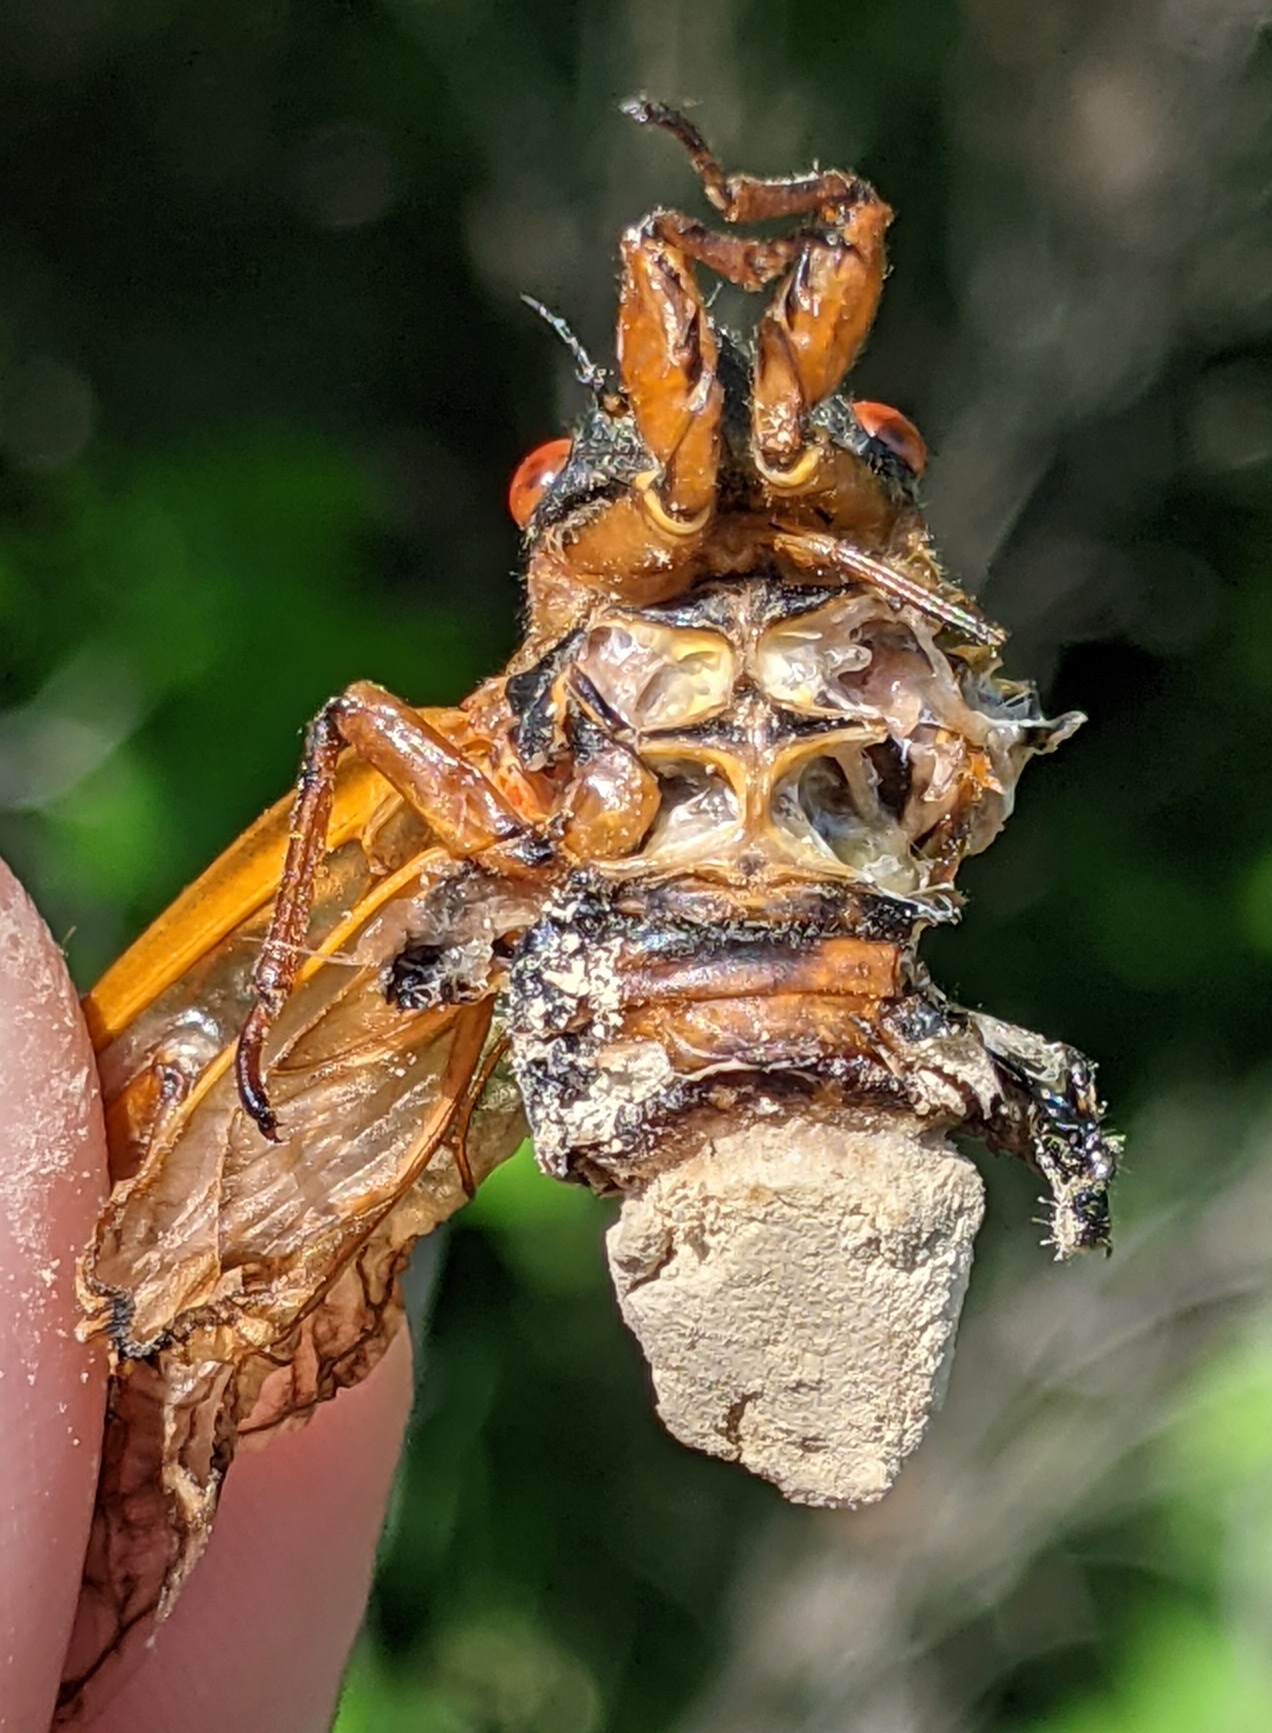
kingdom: Fungi
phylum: Entomophthoromycota
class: Entomophthoromycetes
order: Entomophthorales
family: Entomophthoraceae
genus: Massospora
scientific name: Massospora cicadina
